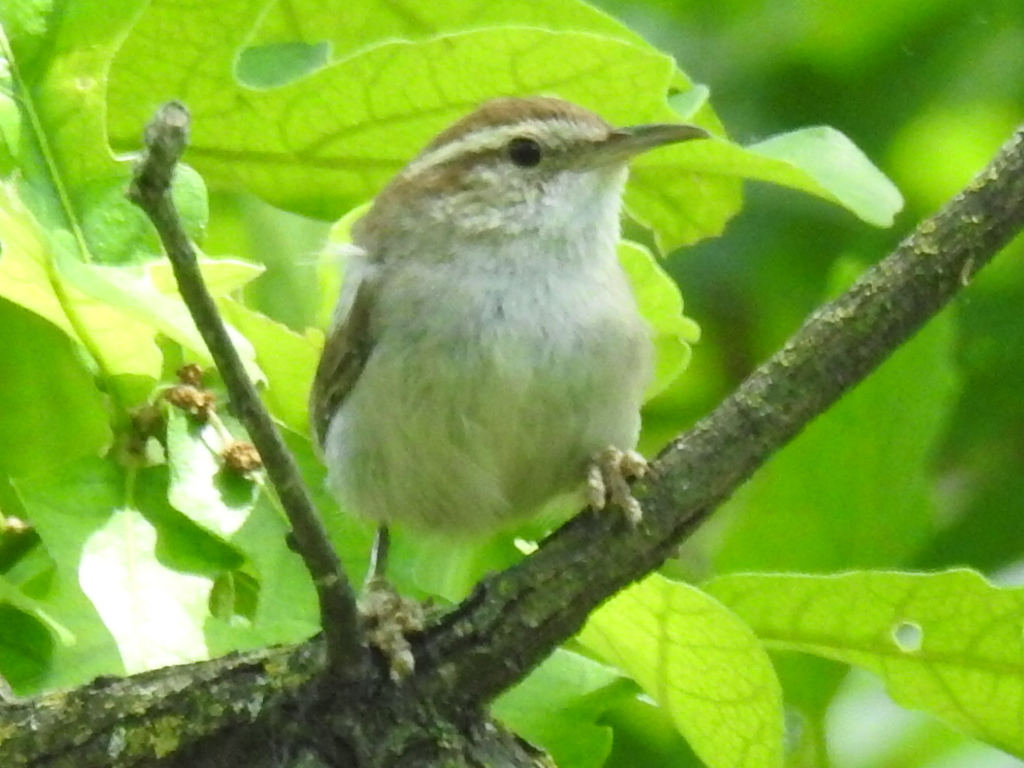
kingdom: Animalia
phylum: Chordata
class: Aves
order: Passeriformes
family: Troglodytidae
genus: Thryomanes
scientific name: Thryomanes bewickii
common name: Bewick's wren
